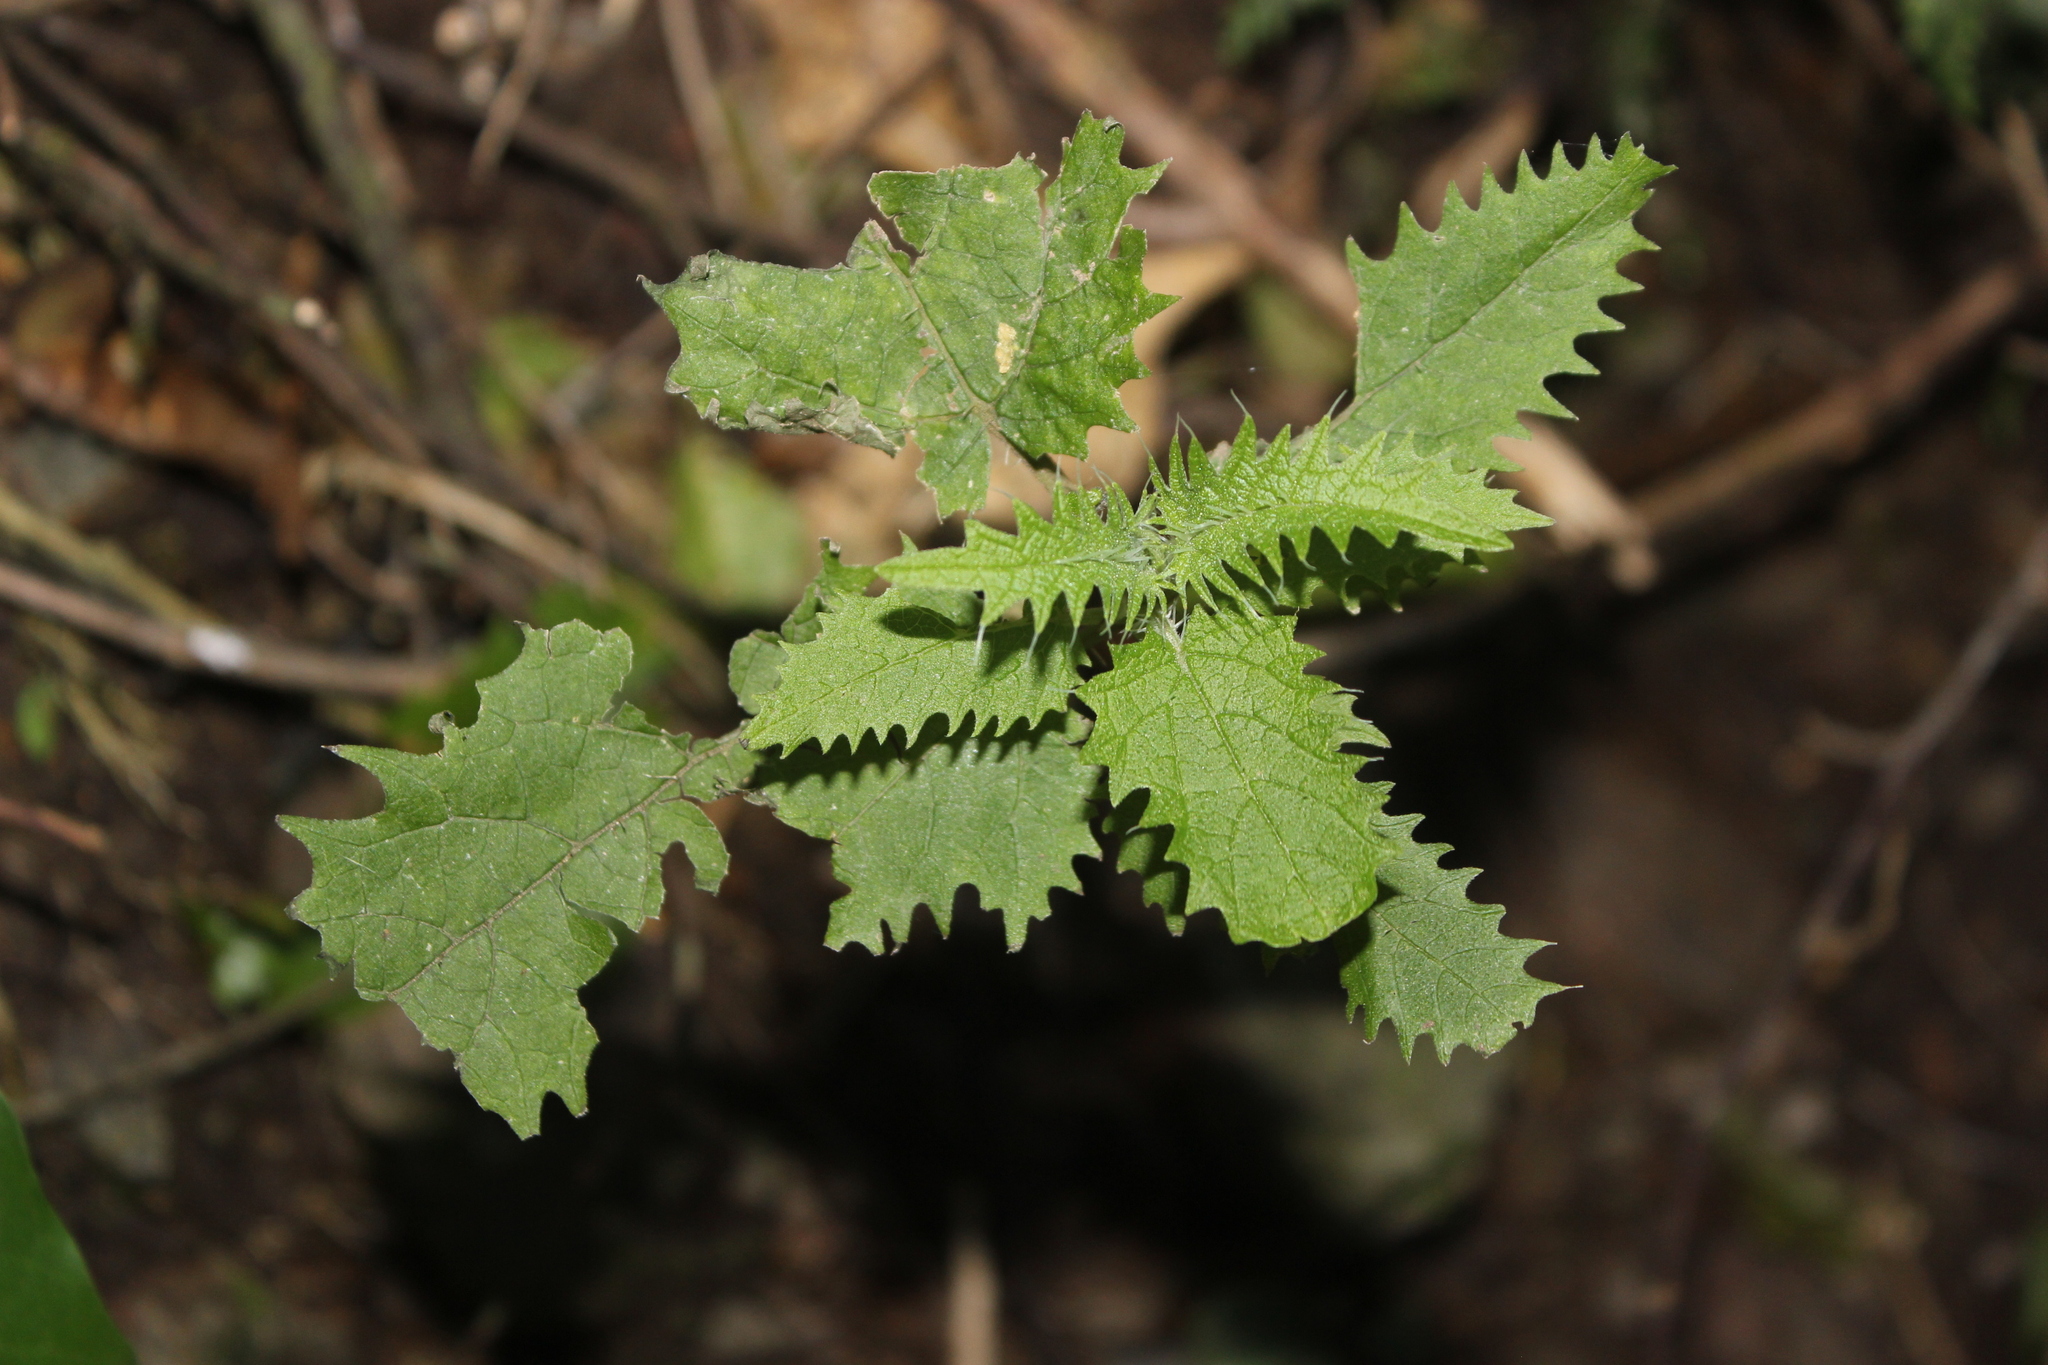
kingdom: Plantae
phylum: Tracheophyta
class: Magnoliopsida
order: Rosales
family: Urticaceae
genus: Urtica
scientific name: Urtica ferox
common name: Tree nettle
